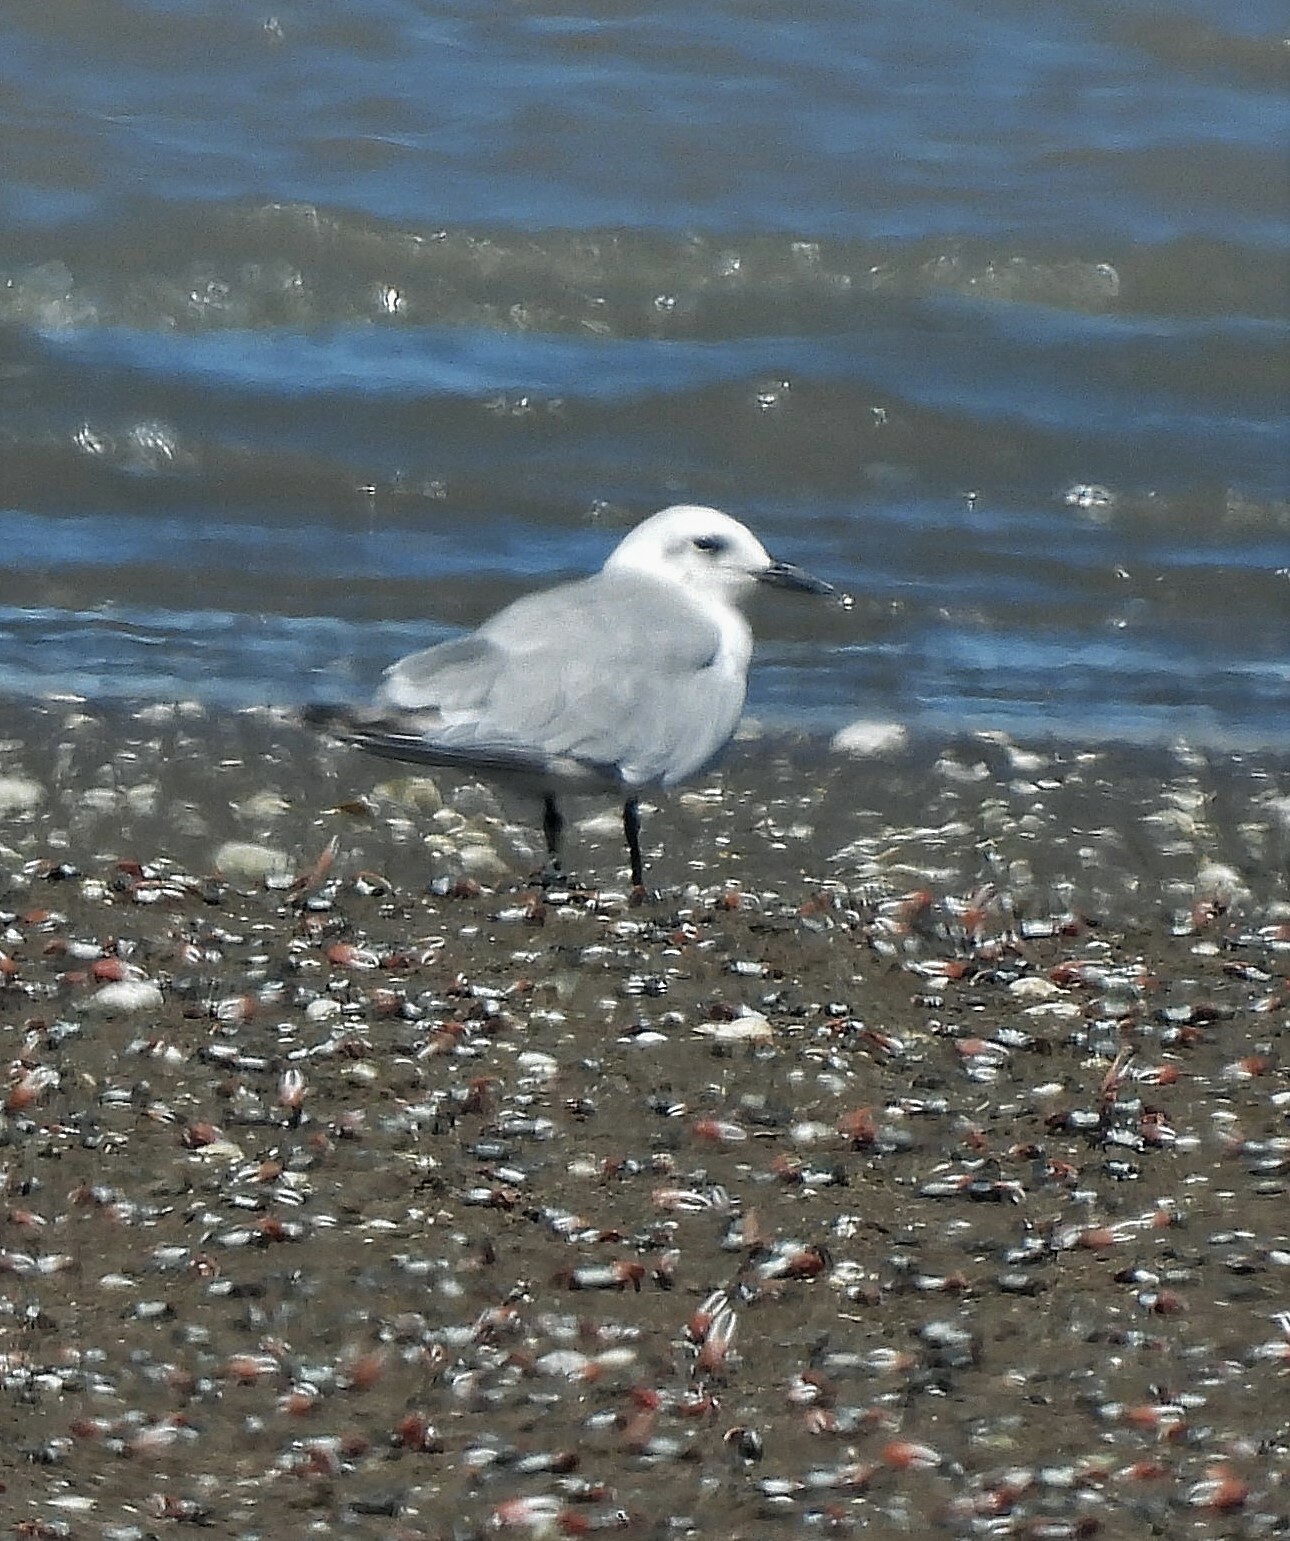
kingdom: Animalia
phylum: Chordata
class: Aves
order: Charadriiformes
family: Laridae
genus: Gelochelidon
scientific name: Gelochelidon nilotica
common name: Gull-billed tern
